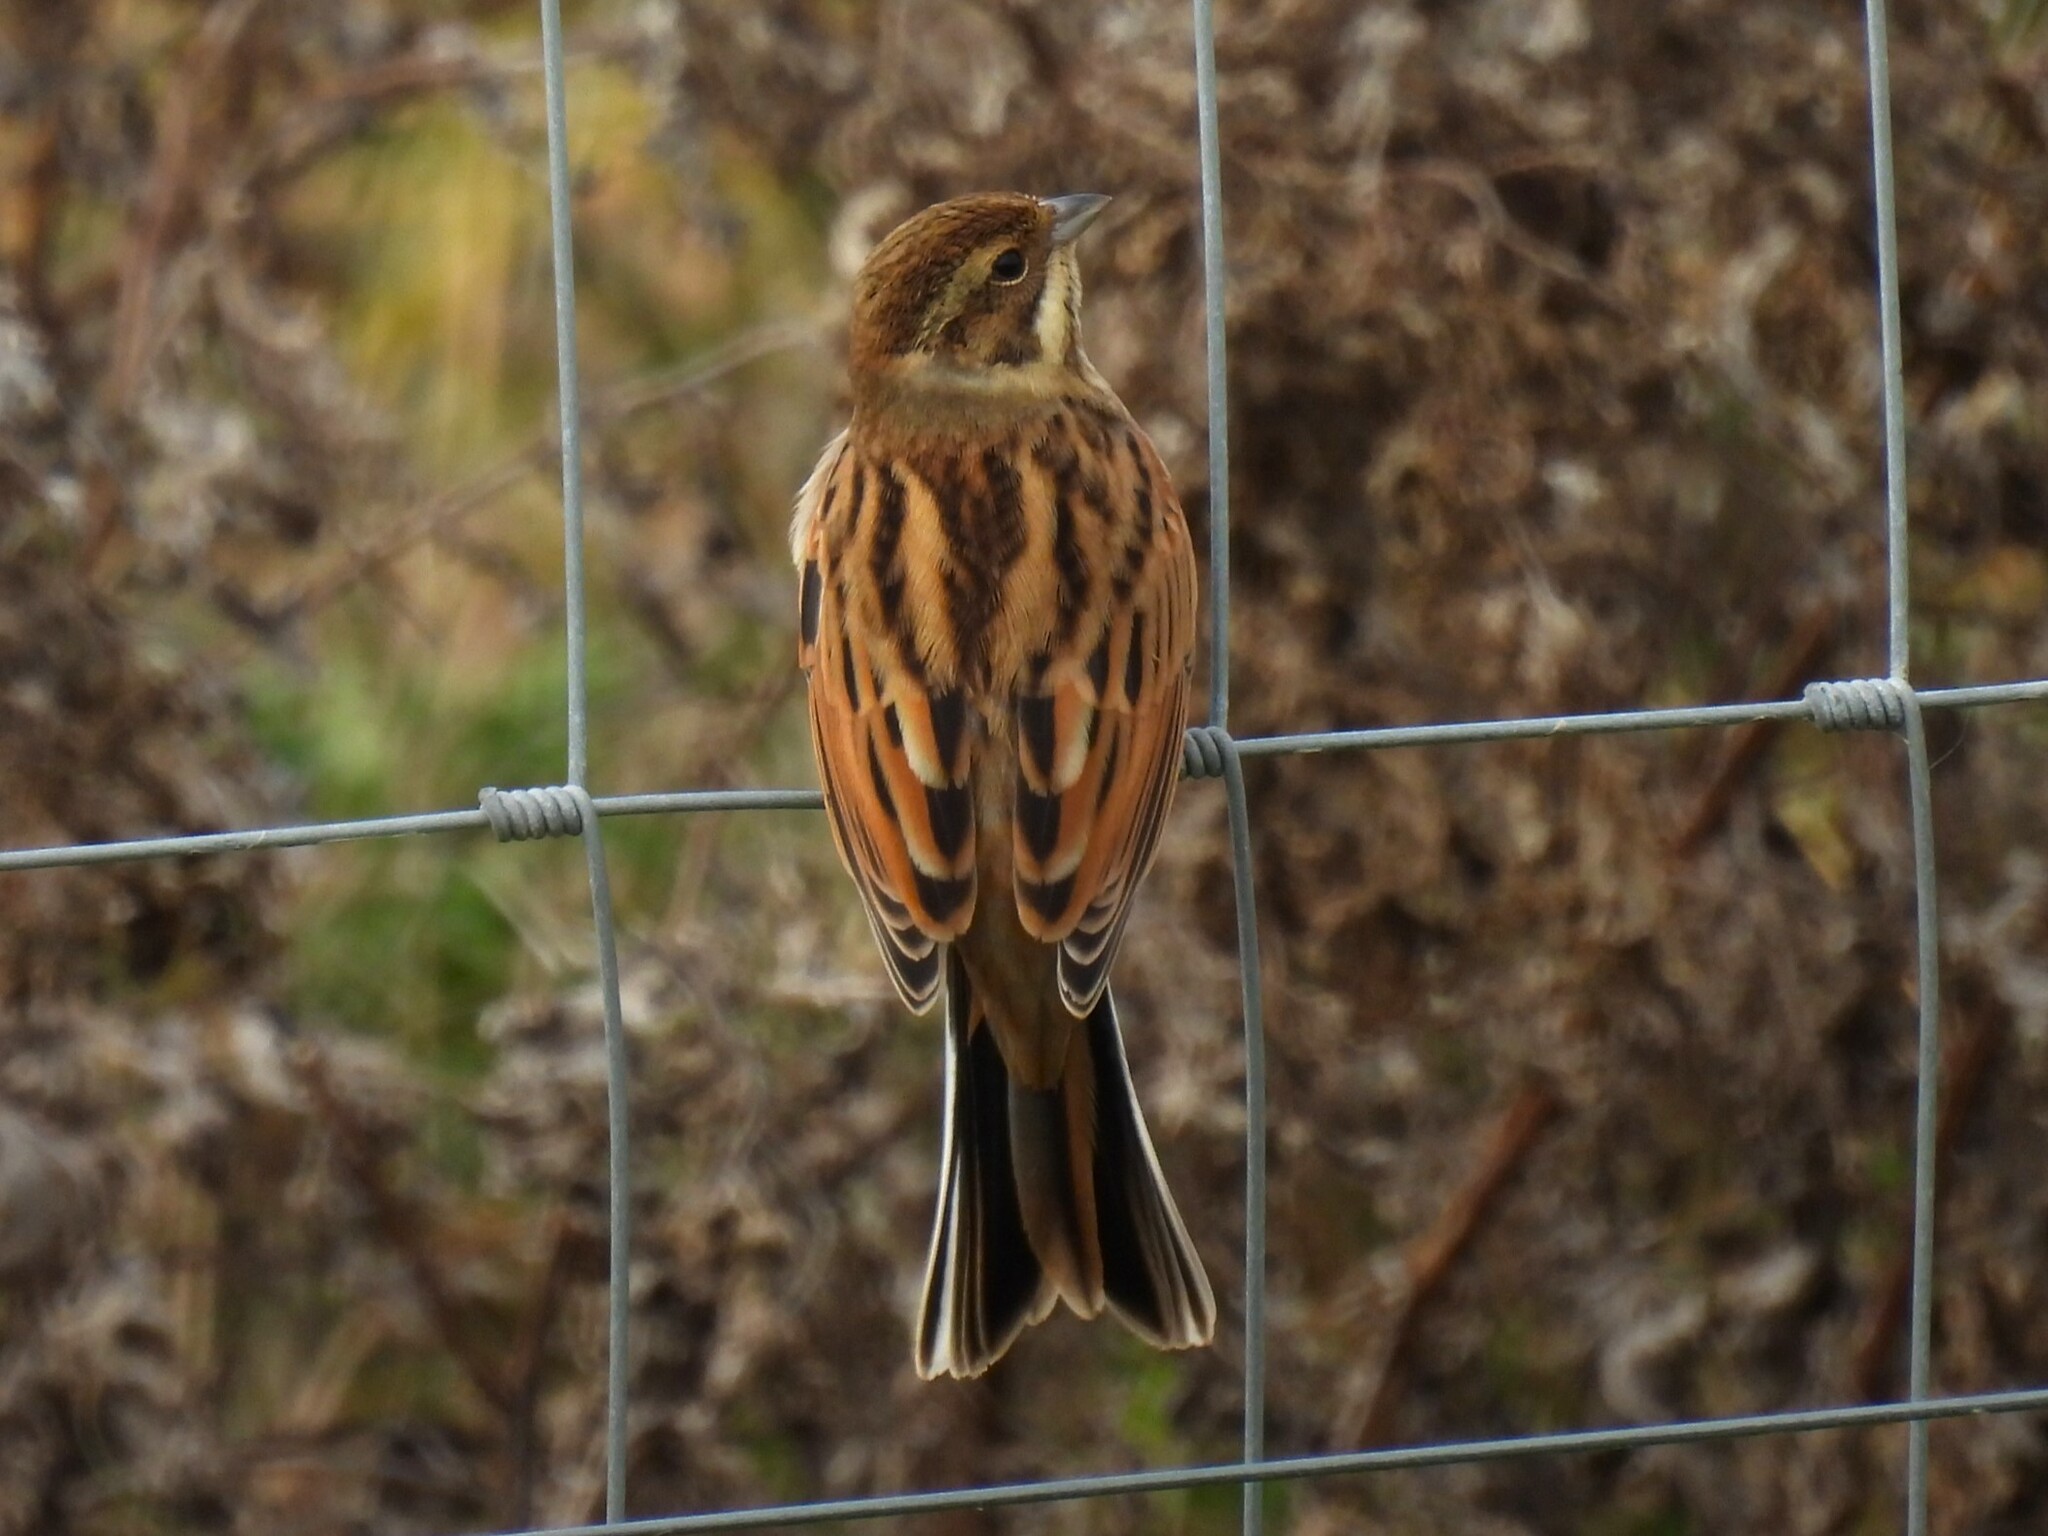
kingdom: Animalia
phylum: Chordata
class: Aves
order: Passeriformes
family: Emberizidae
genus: Emberiza
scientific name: Emberiza schoeniclus
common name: Reed bunting
